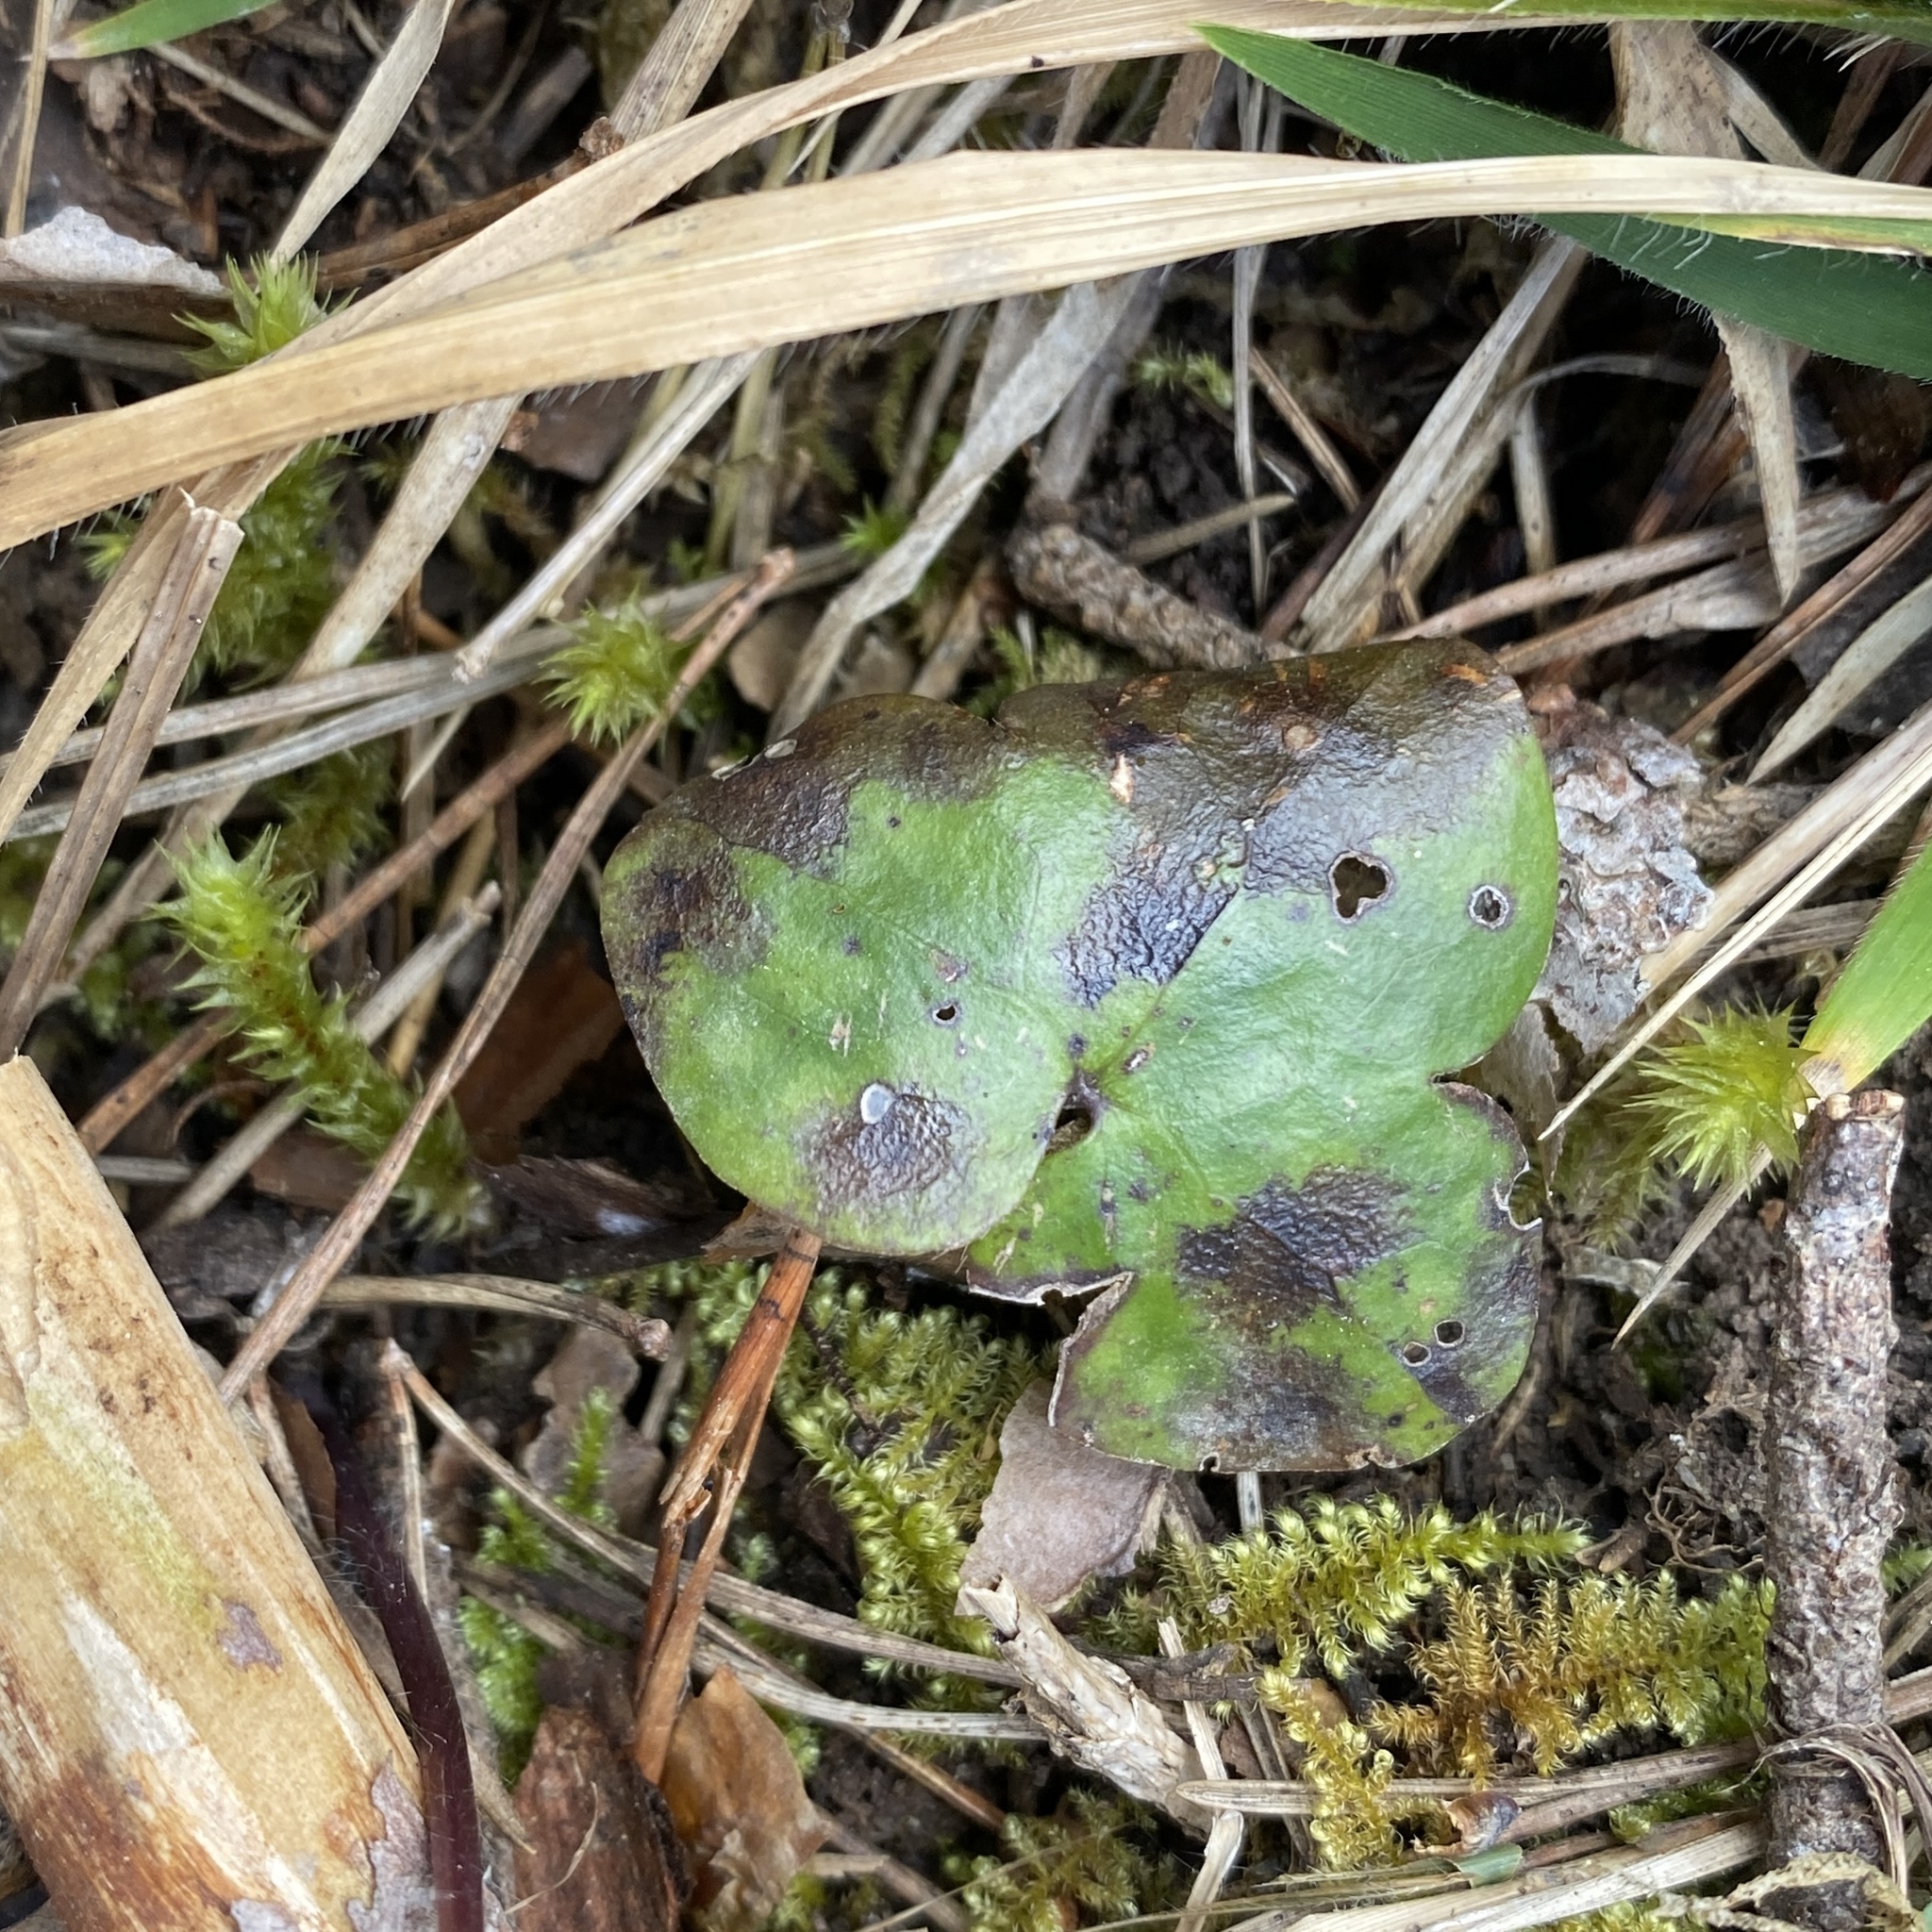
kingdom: Plantae
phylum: Tracheophyta
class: Magnoliopsida
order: Ranunculales
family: Ranunculaceae
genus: Hepatica
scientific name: Hepatica nobilis
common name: Liverleaf
